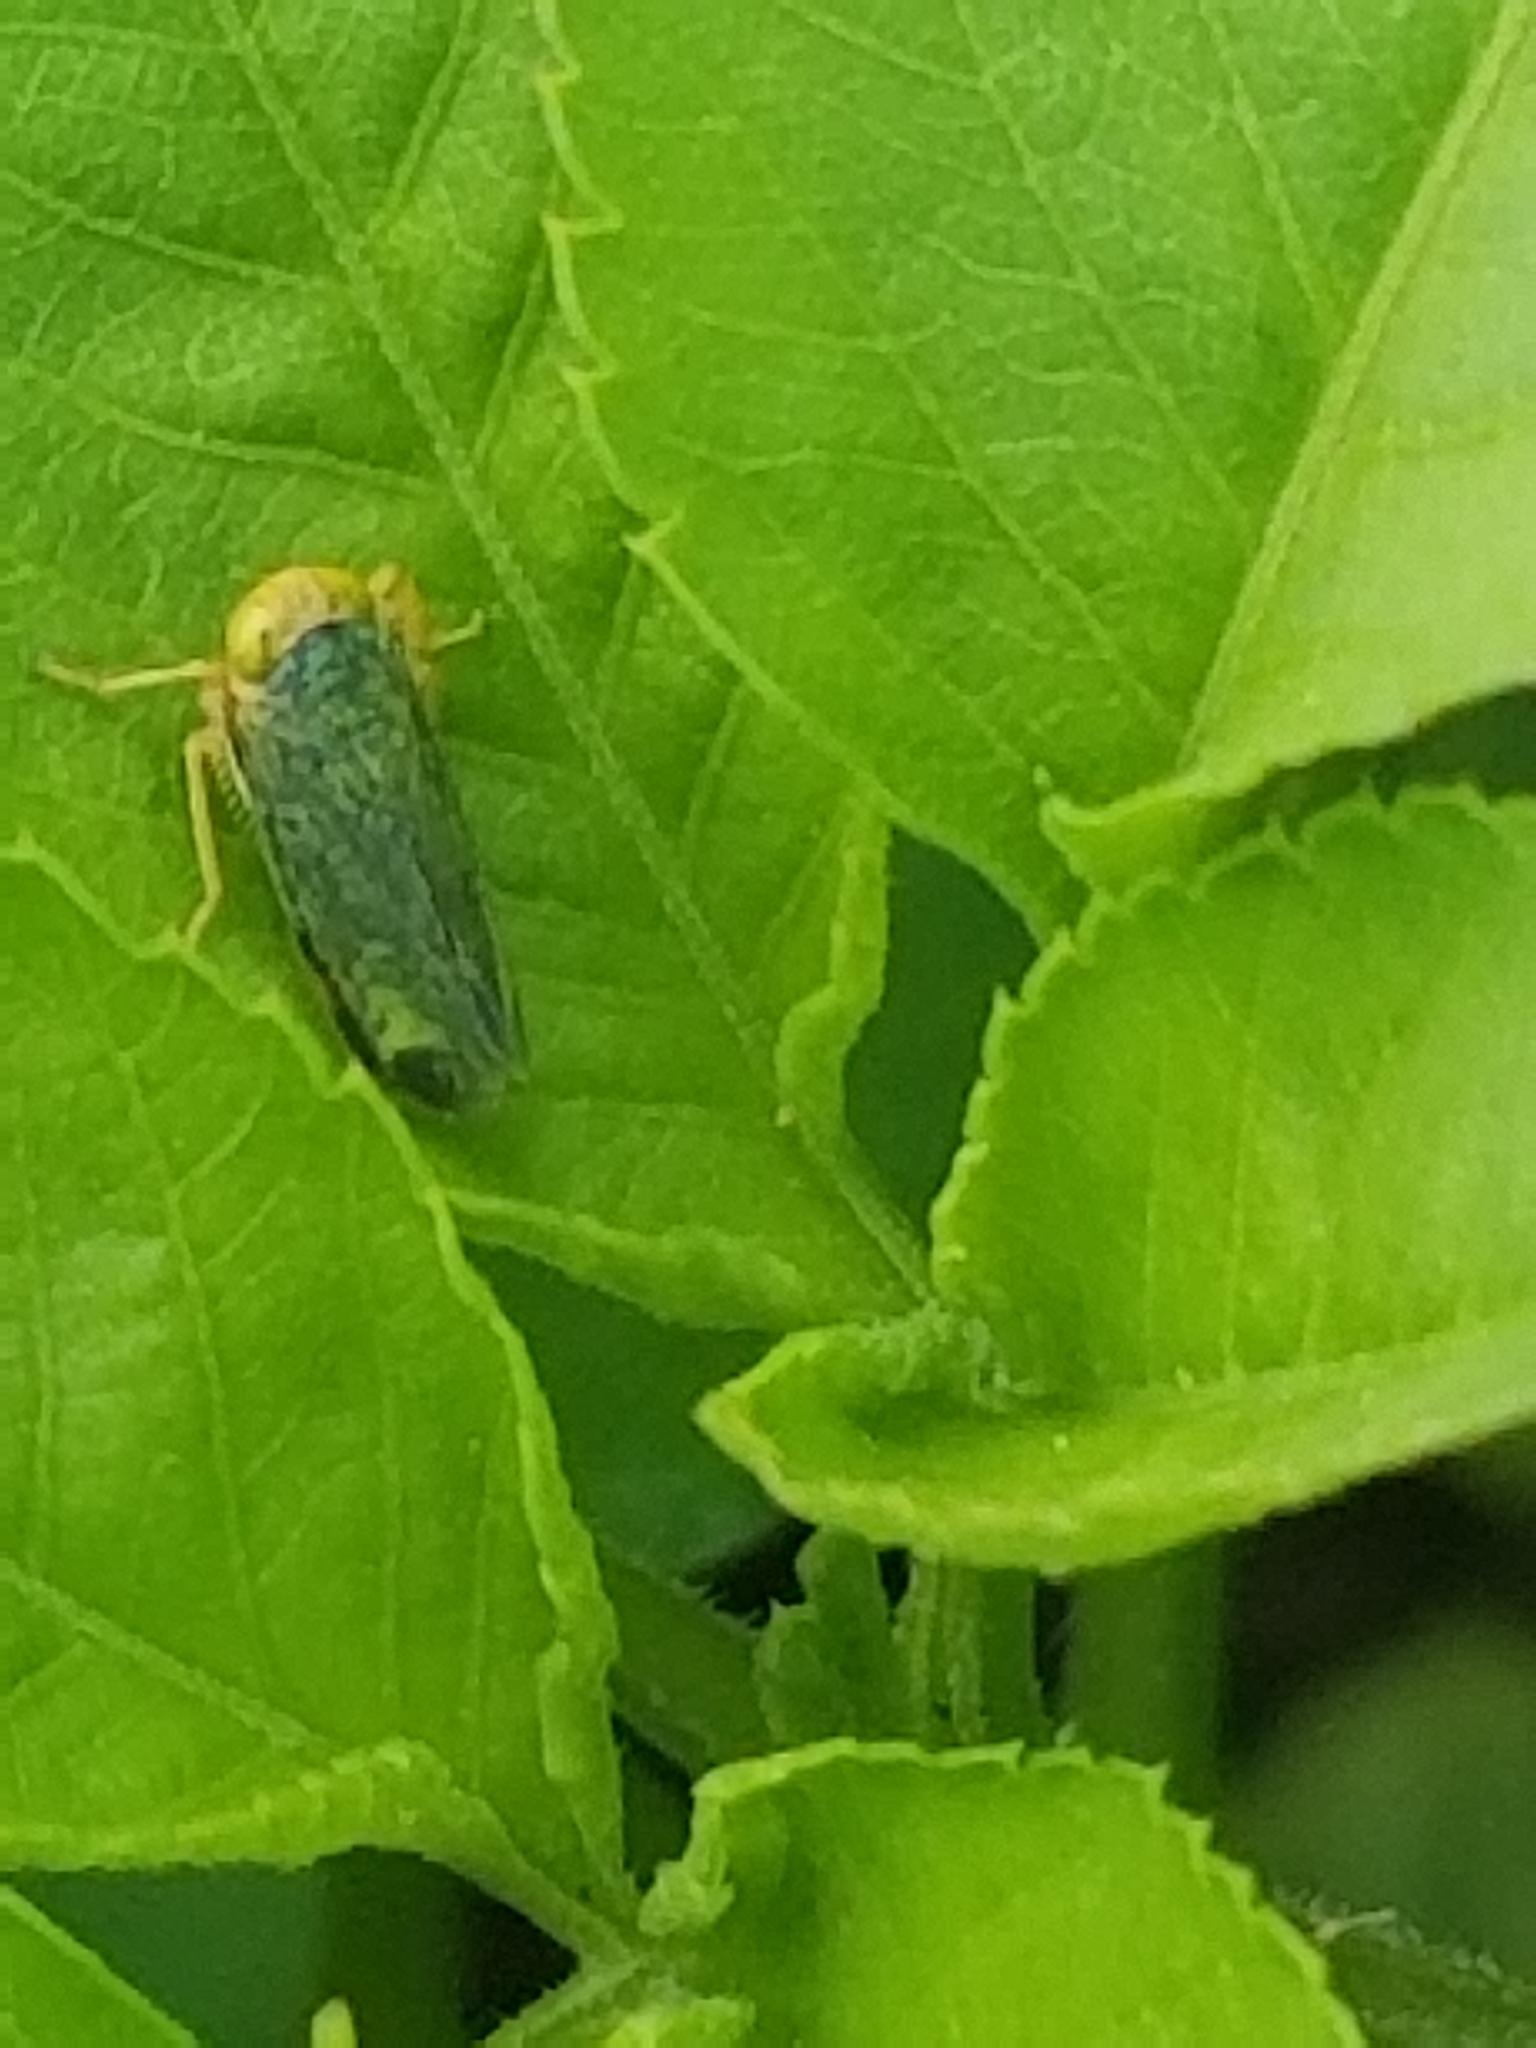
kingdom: Animalia
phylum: Arthropoda
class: Insecta
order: Hemiptera
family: Cicadellidae
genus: Jikradia
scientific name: Jikradia olitoria
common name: Coppery leafhopper
